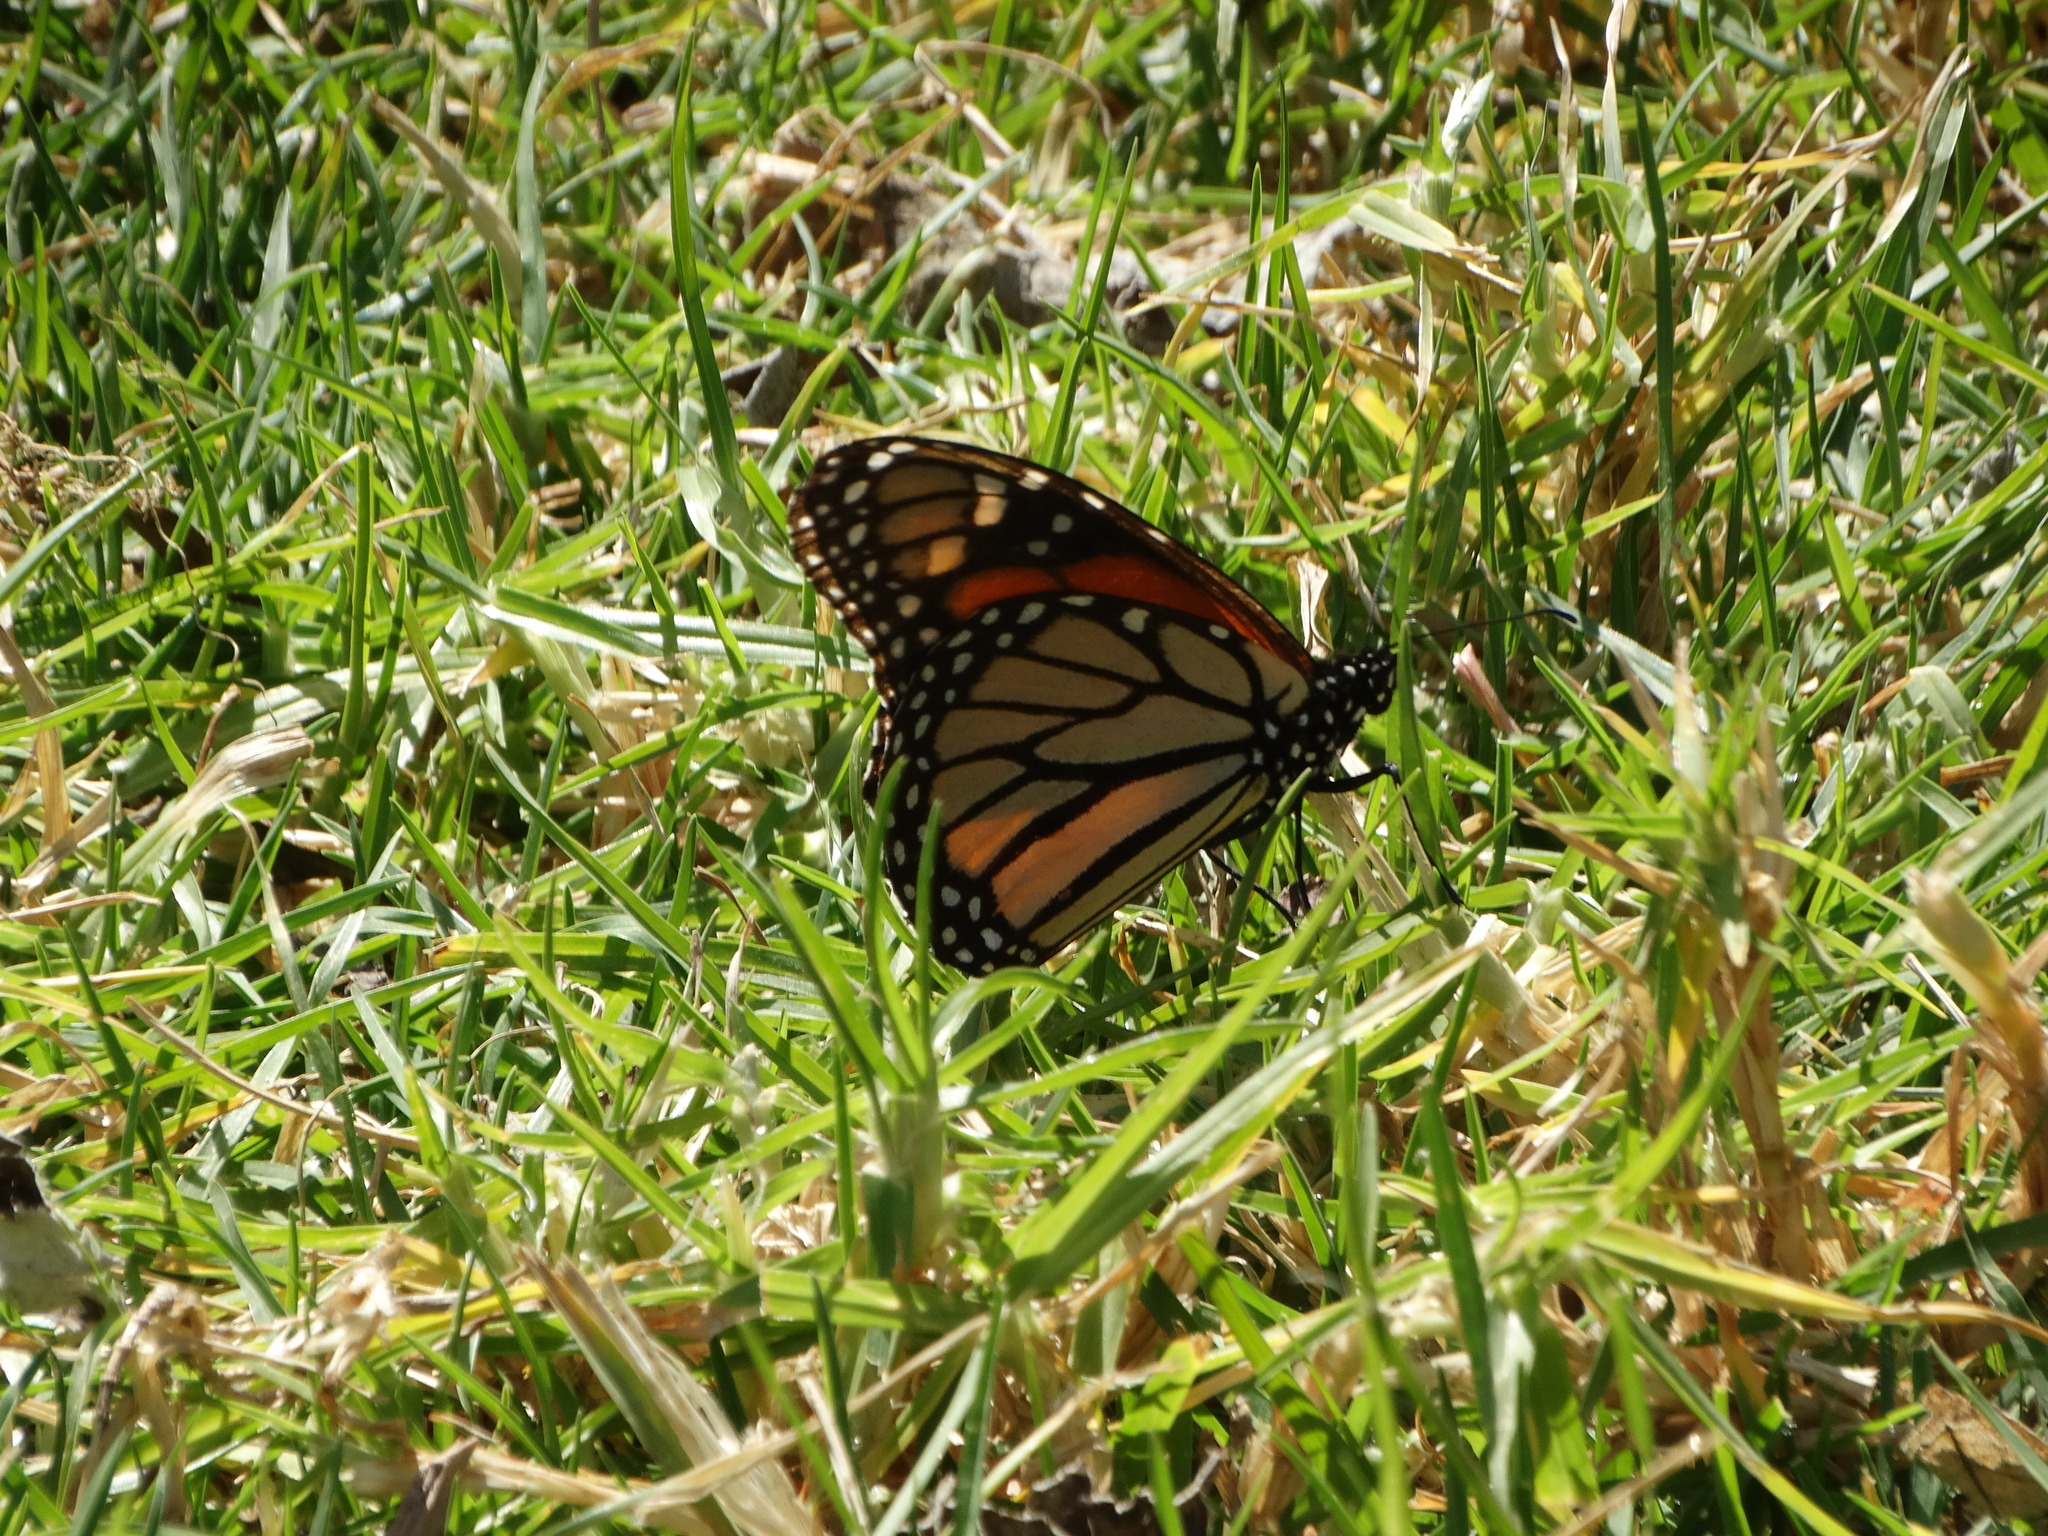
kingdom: Animalia
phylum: Arthropoda
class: Insecta
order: Lepidoptera
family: Nymphalidae
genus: Danaus
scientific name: Danaus plexippus
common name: Monarch
